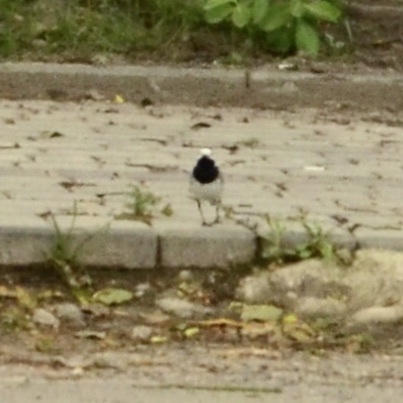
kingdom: Animalia
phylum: Chordata
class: Aves
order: Passeriformes
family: Motacillidae
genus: Motacilla
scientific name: Motacilla alba
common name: White wagtail
